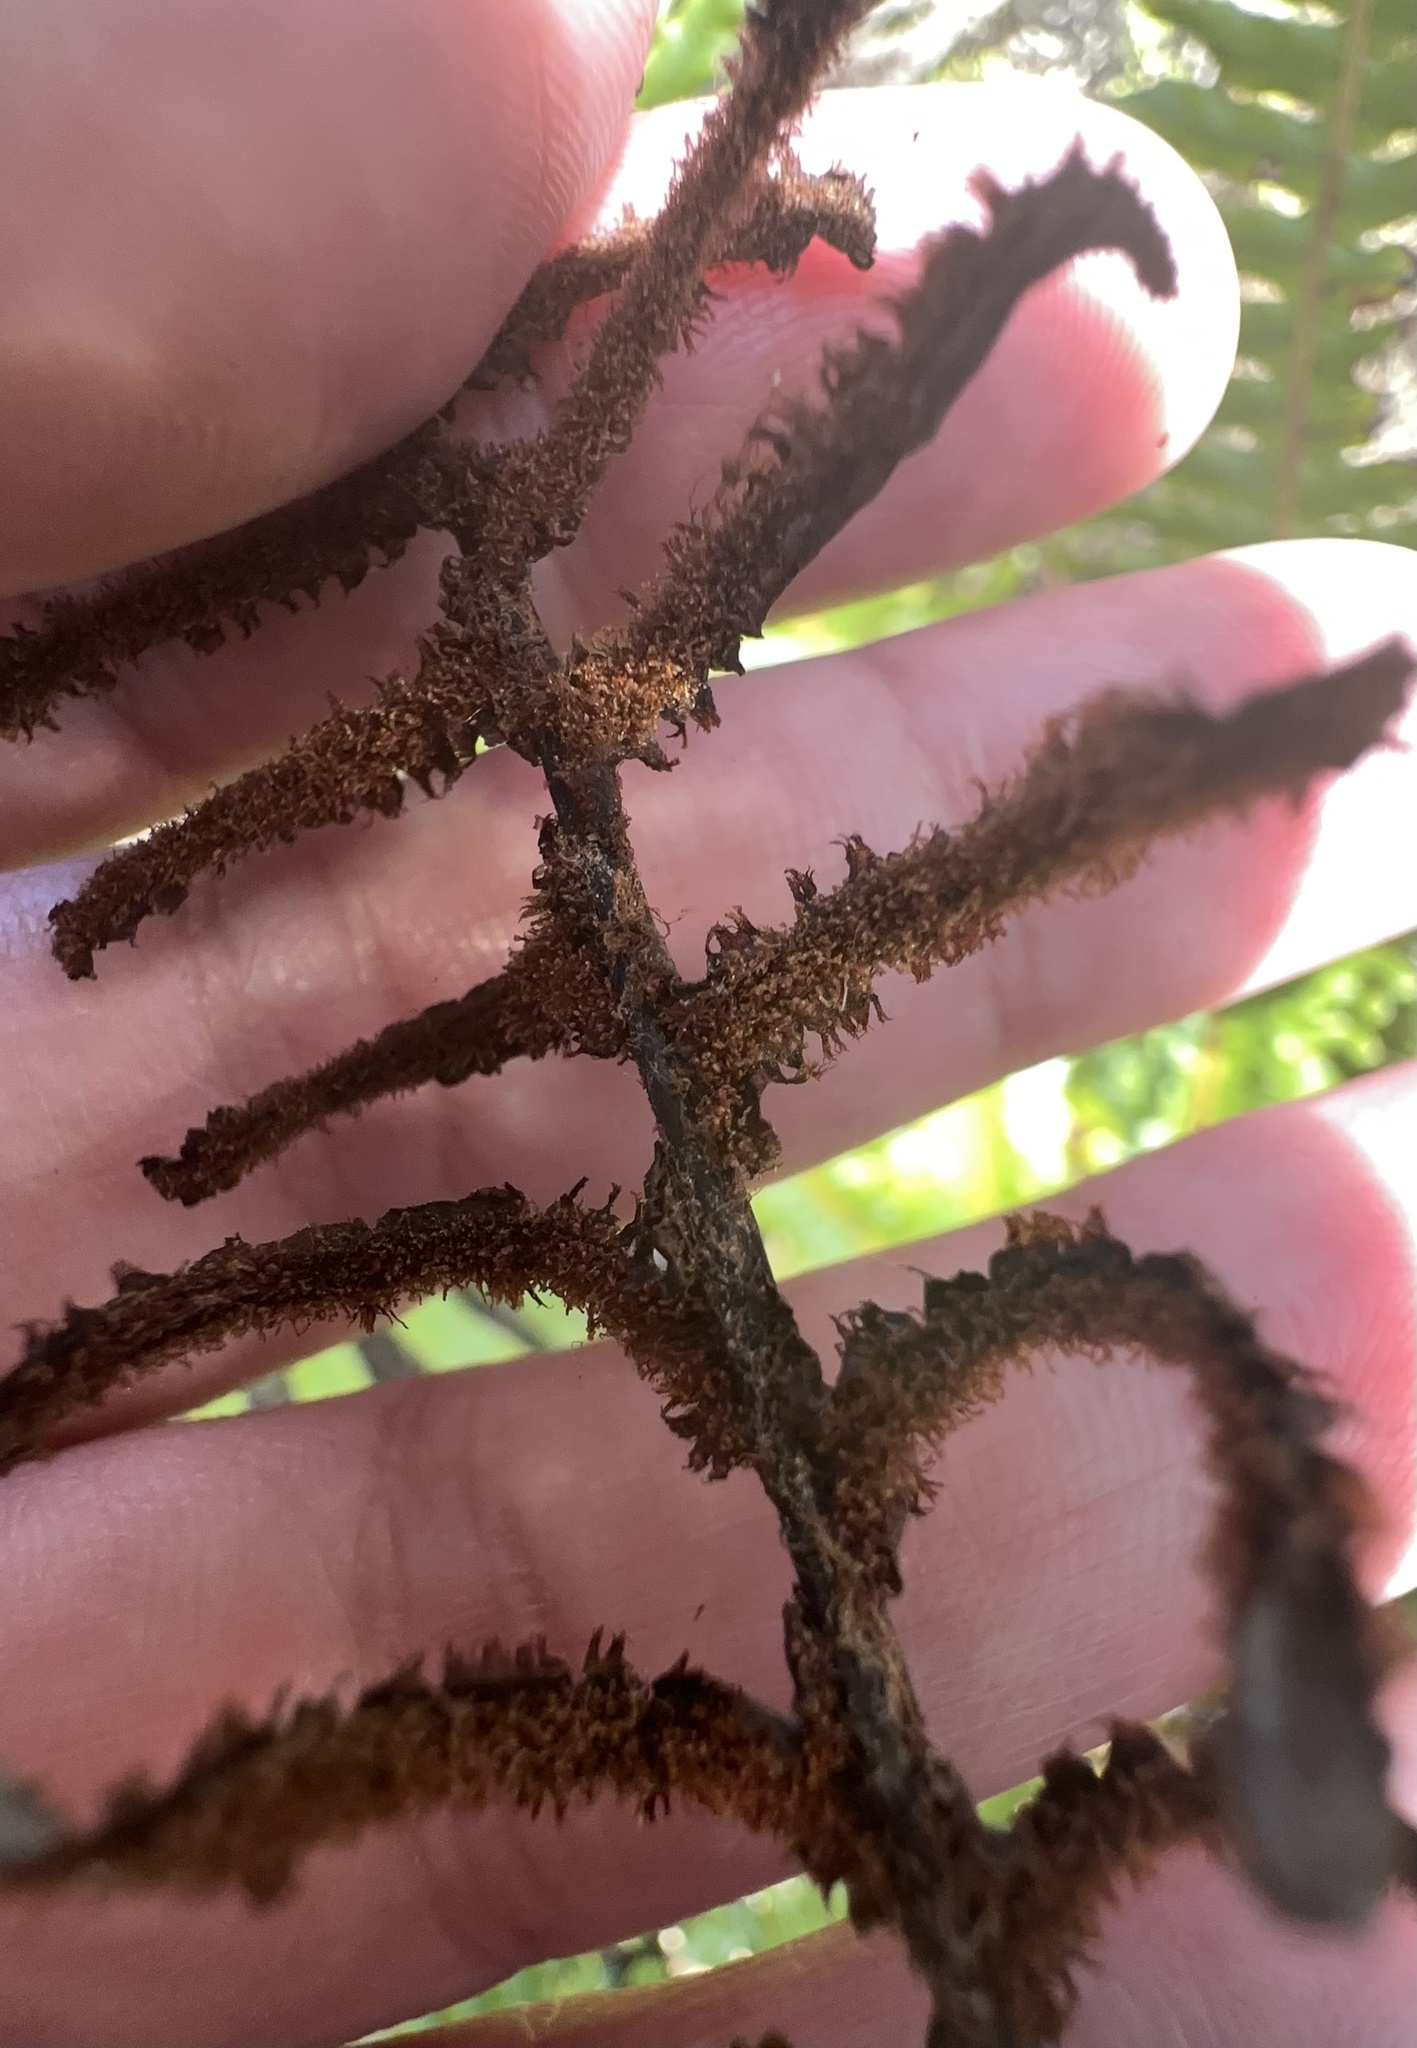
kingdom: Plantae
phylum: Tracheophyta
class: Polypodiopsida
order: Polypodiales
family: Blechnaceae
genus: Lomaria
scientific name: Lomaria discolor
